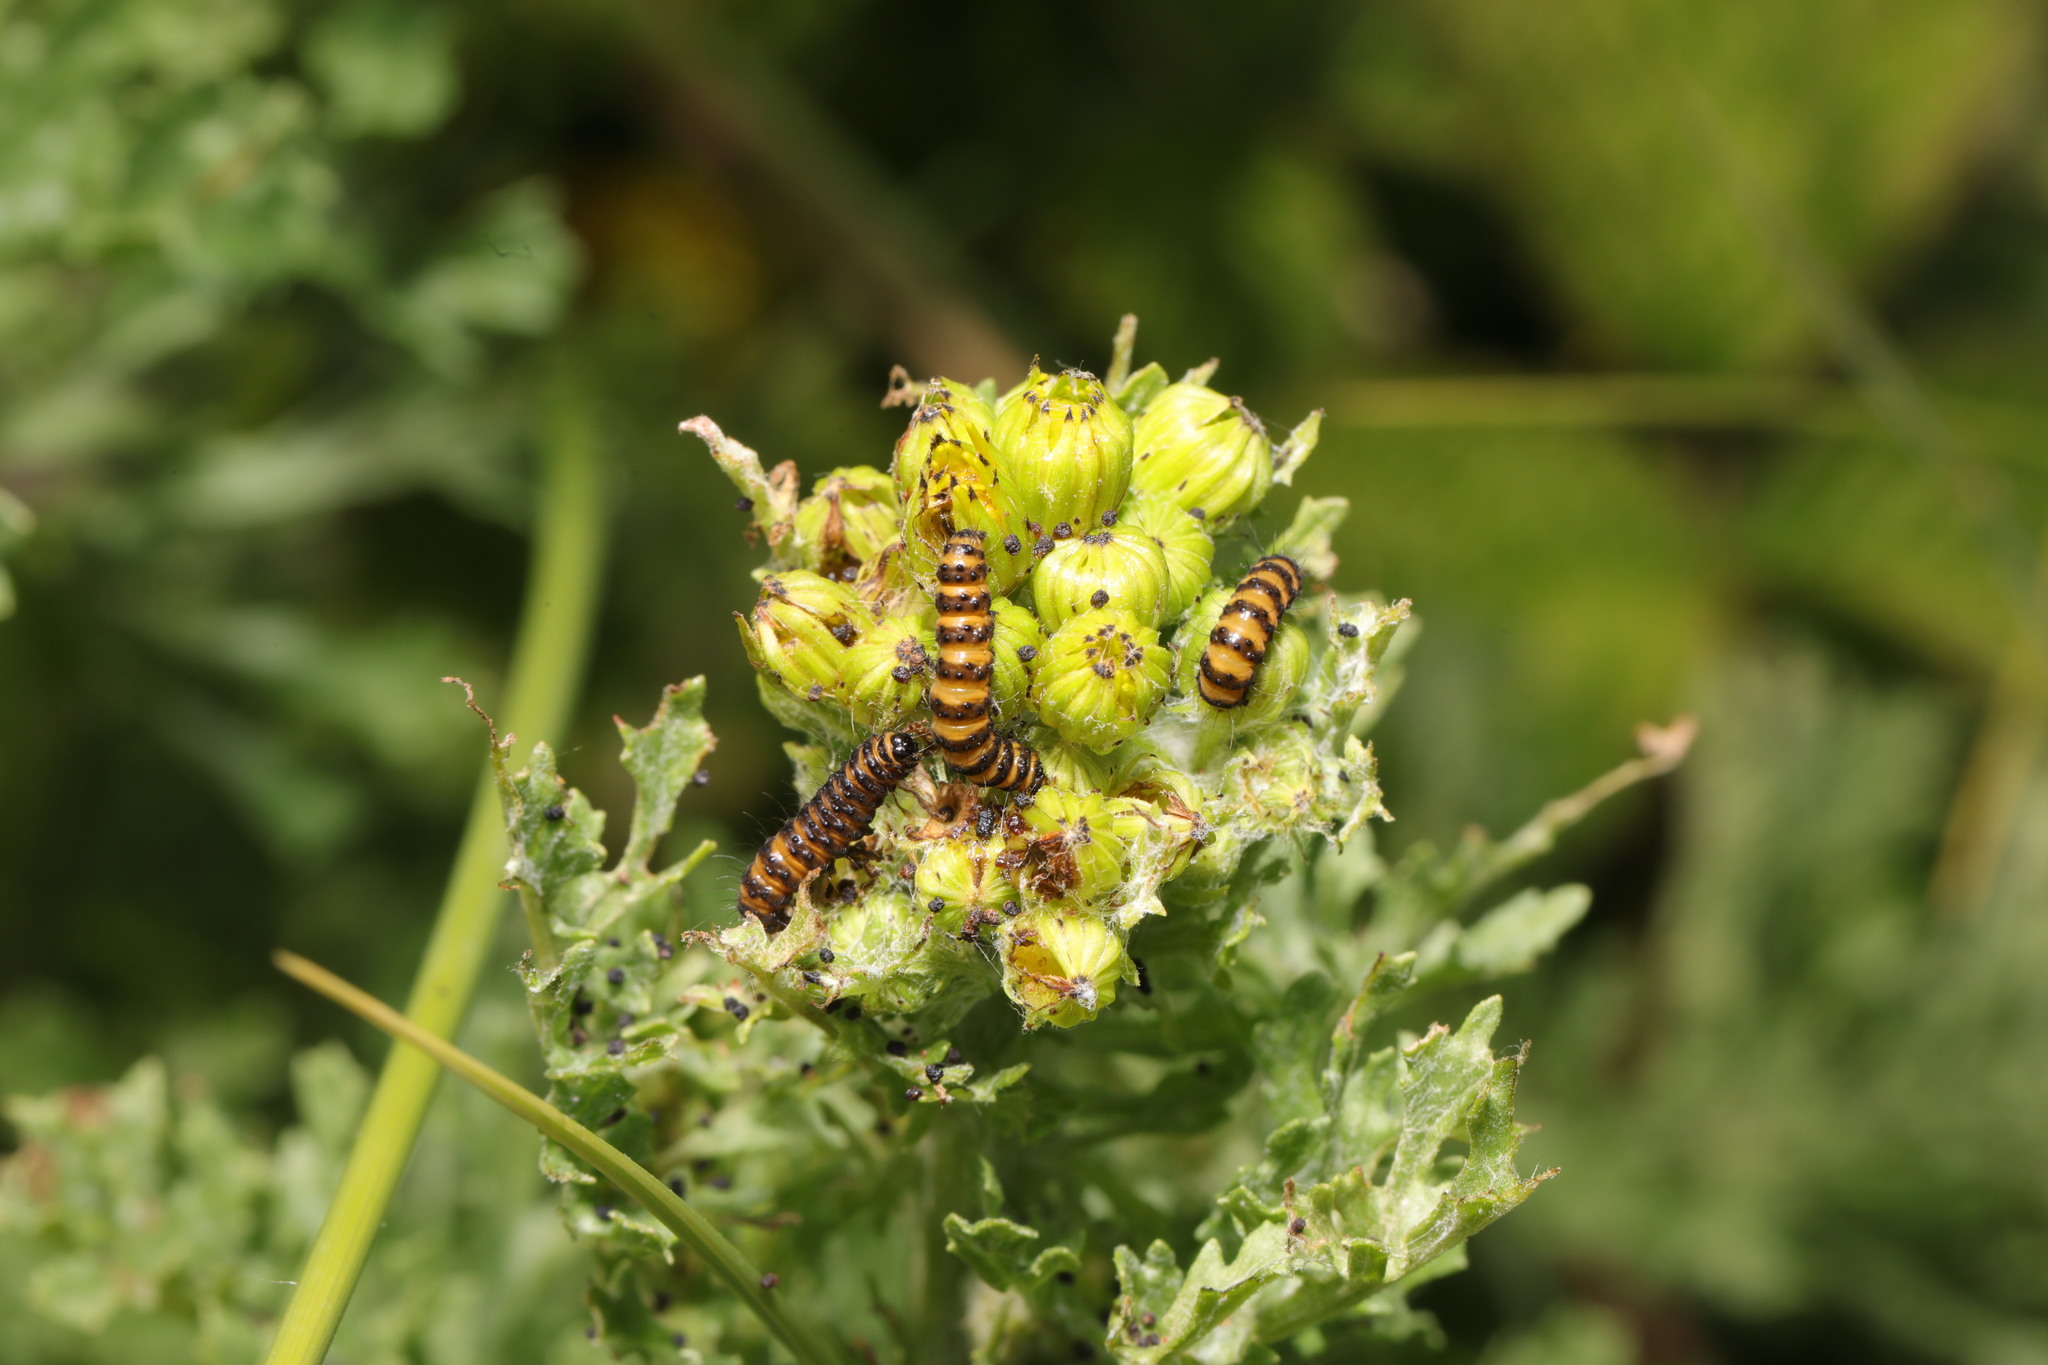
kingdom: Animalia
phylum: Arthropoda
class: Insecta
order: Lepidoptera
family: Erebidae
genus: Tyria
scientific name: Tyria jacobaeae
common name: Cinnabar
